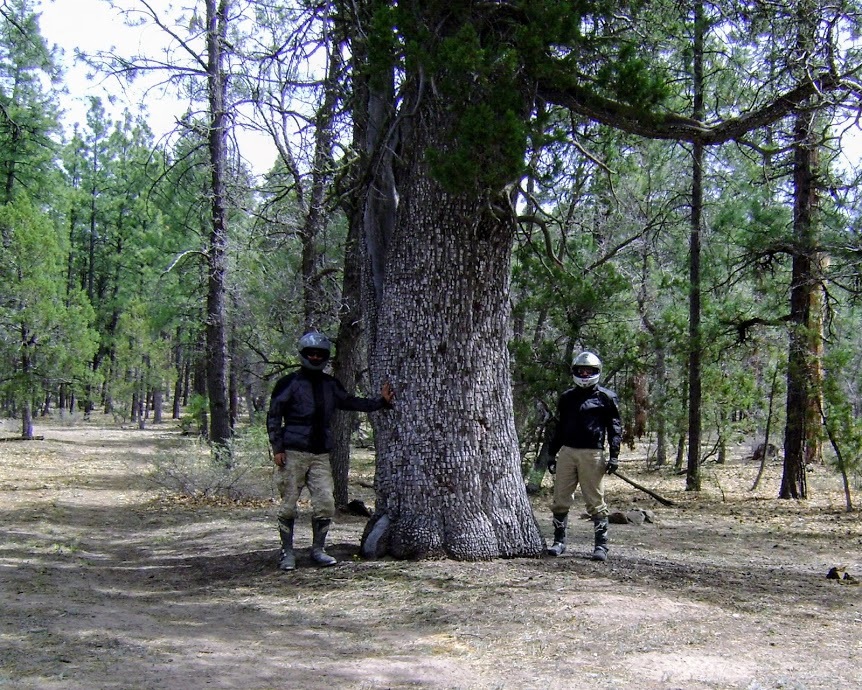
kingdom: Plantae
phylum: Tracheophyta
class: Pinopsida
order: Pinales
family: Cupressaceae
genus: Juniperus
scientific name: Juniperus deppeana
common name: Alligator juniper
